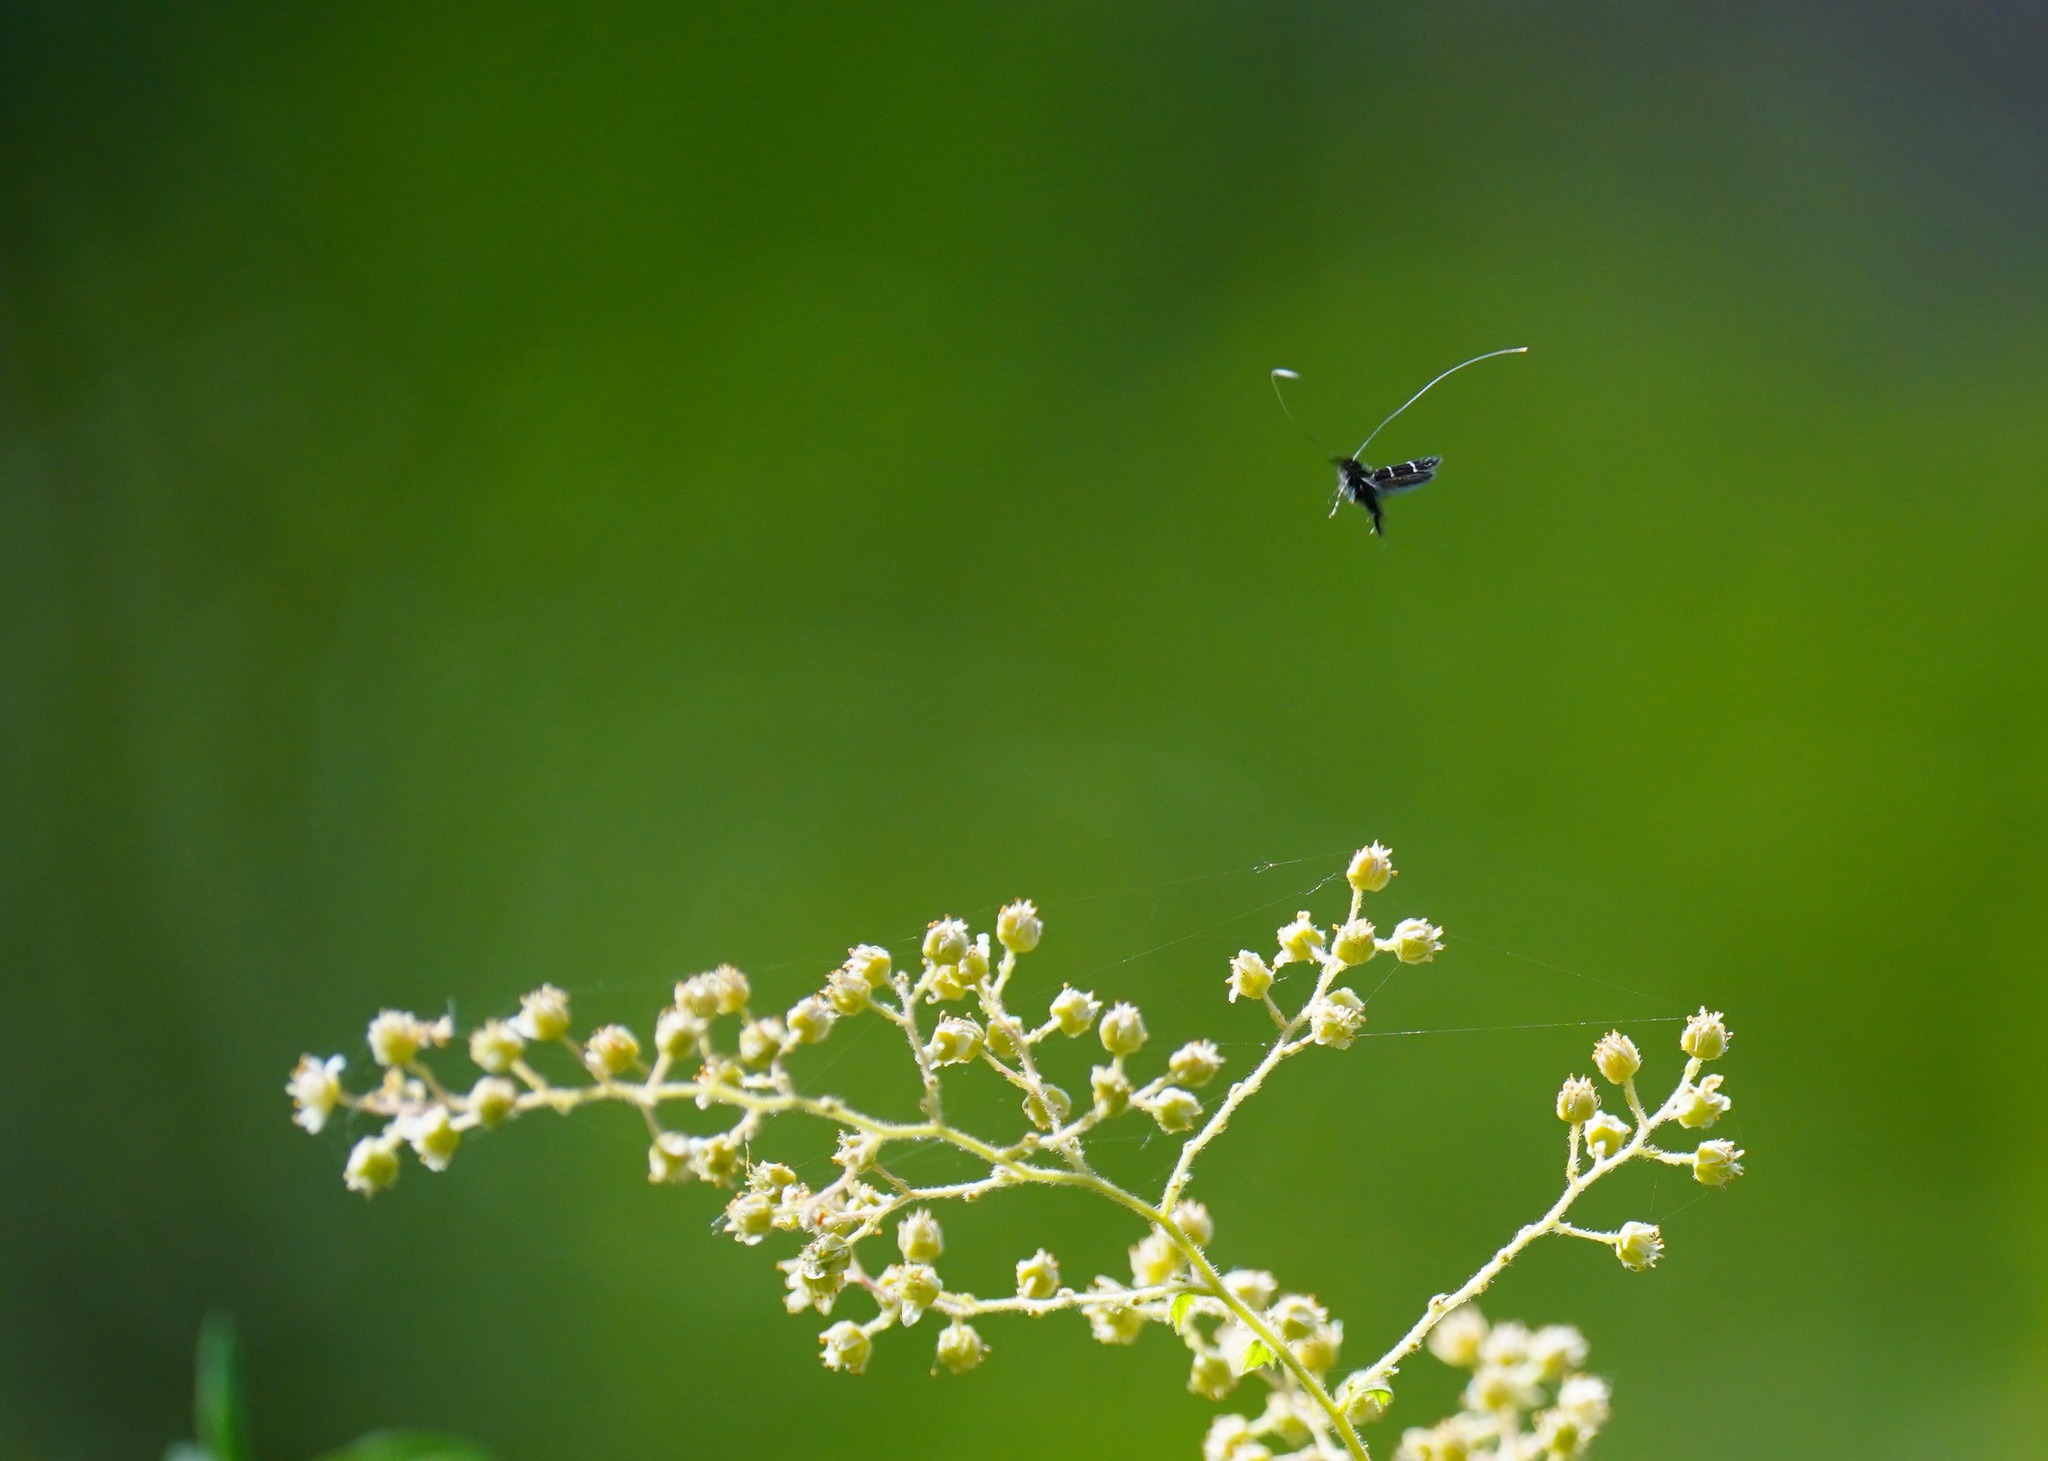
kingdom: Animalia
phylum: Arthropoda
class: Insecta
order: Lepidoptera
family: Adelidae
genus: Adela
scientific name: Adela septentrionella
